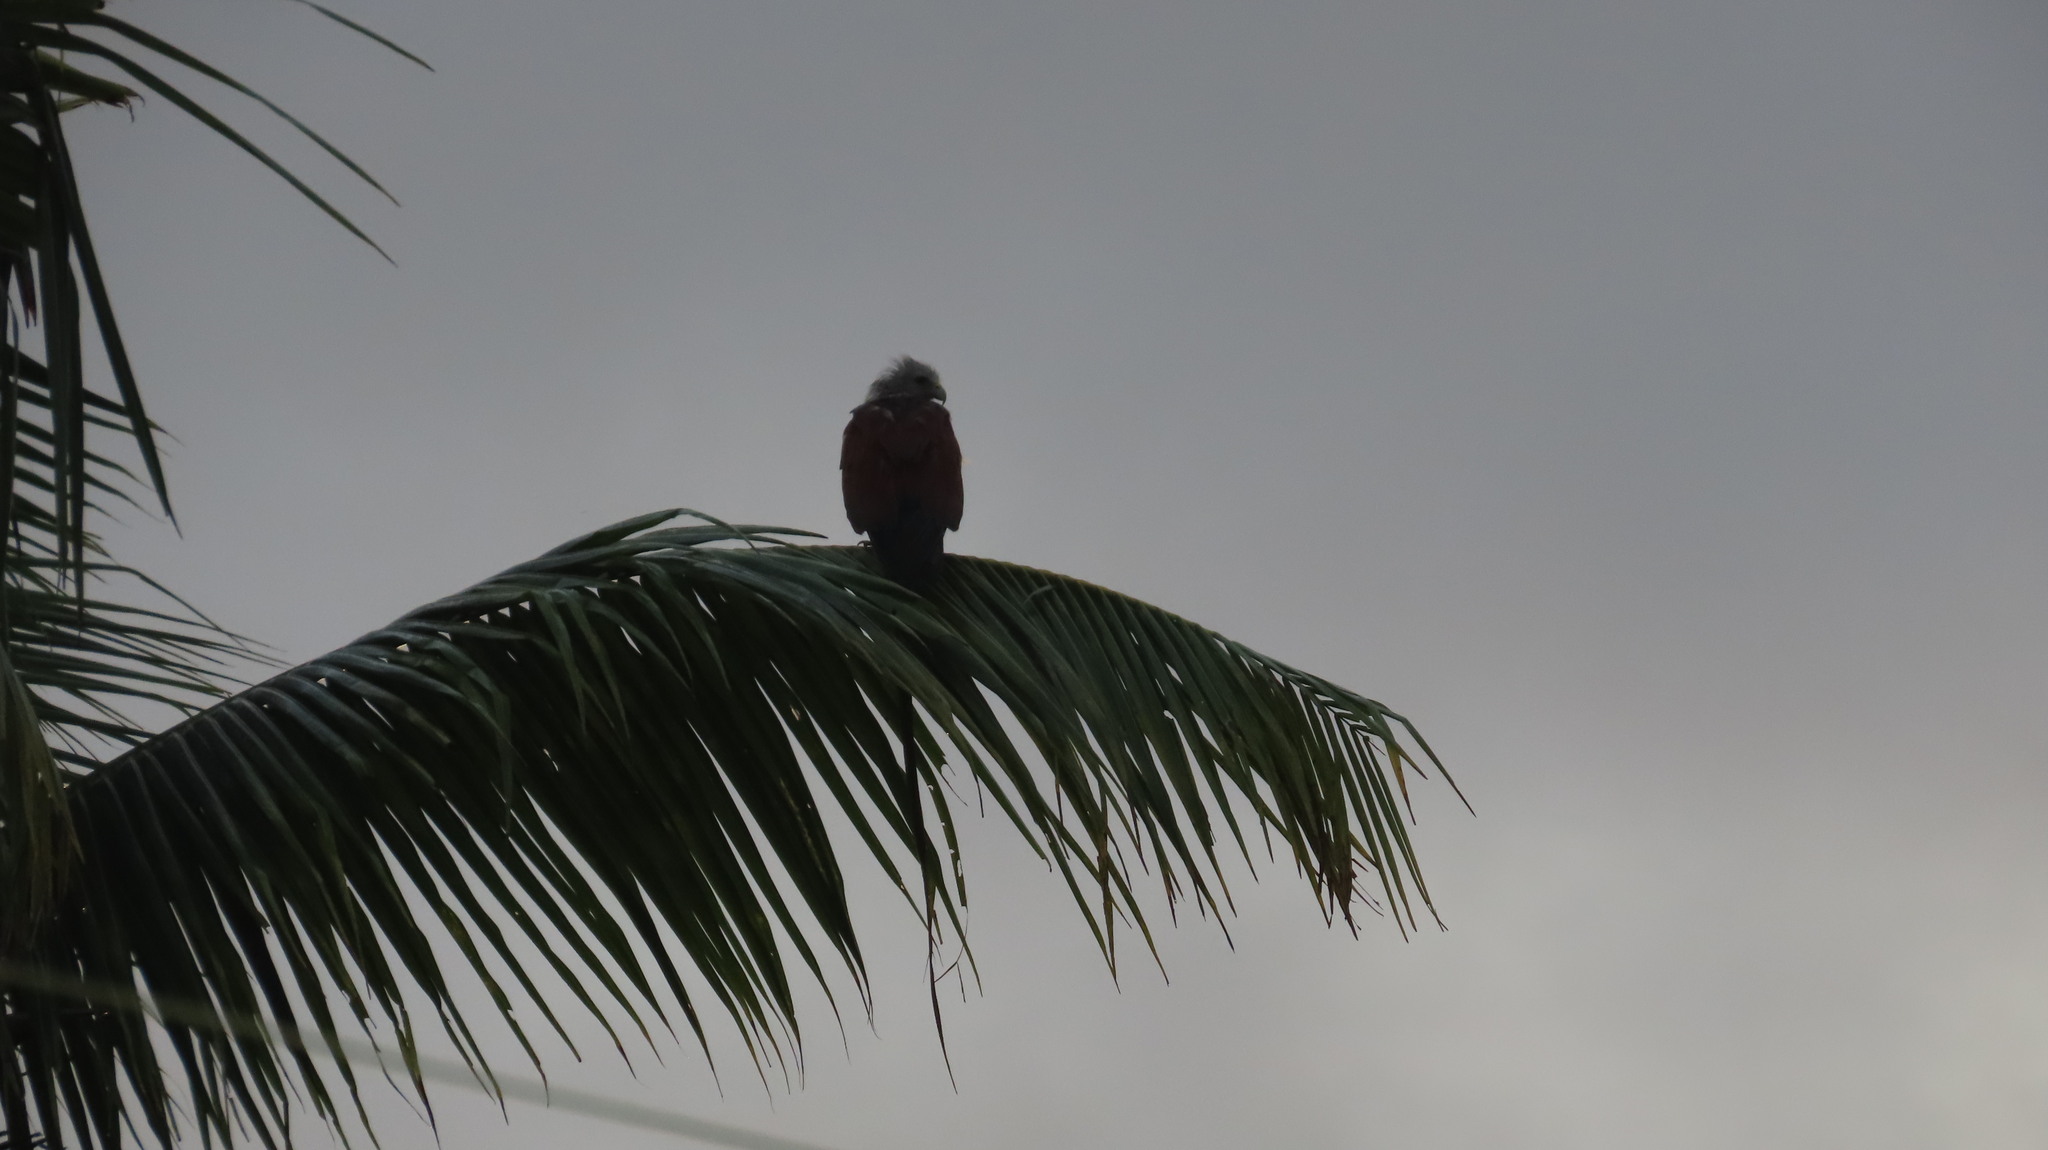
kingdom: Animalia
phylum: Chordata
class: Aves
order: Accipitriformes
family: Accipitridae
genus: Haliastur
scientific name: Haliastur indus
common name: Brahminy kite
